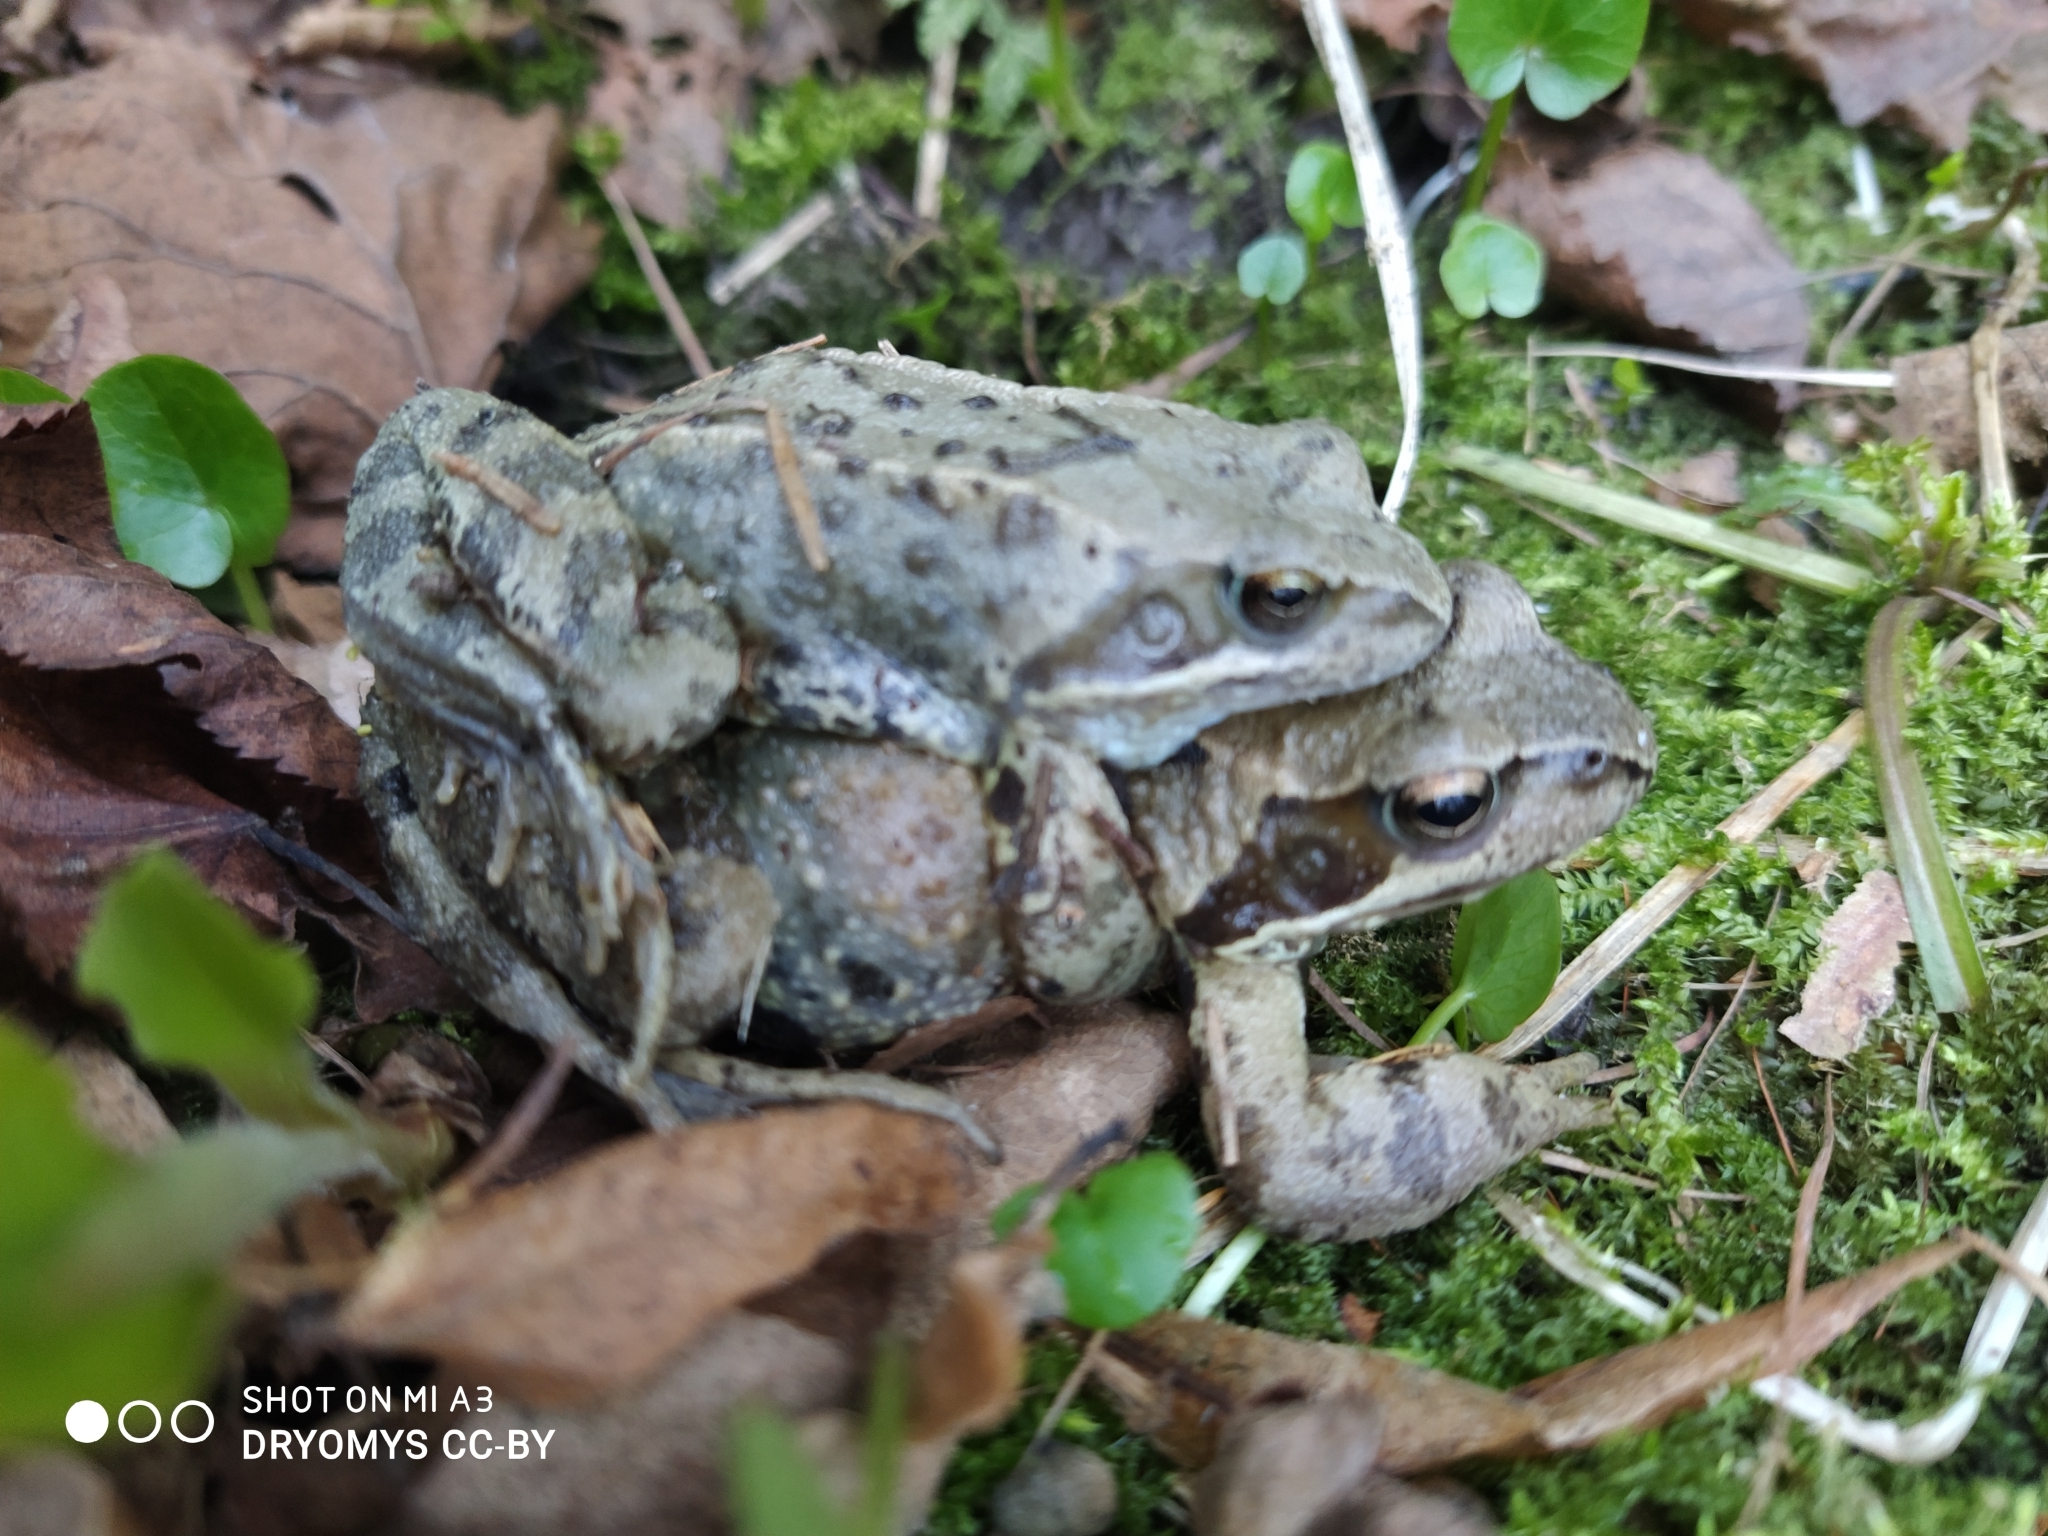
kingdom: Animalia
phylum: Chordata
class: Amphibia
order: Anura
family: Ranidae
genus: Rana
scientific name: Rana temporaria
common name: Common frog
